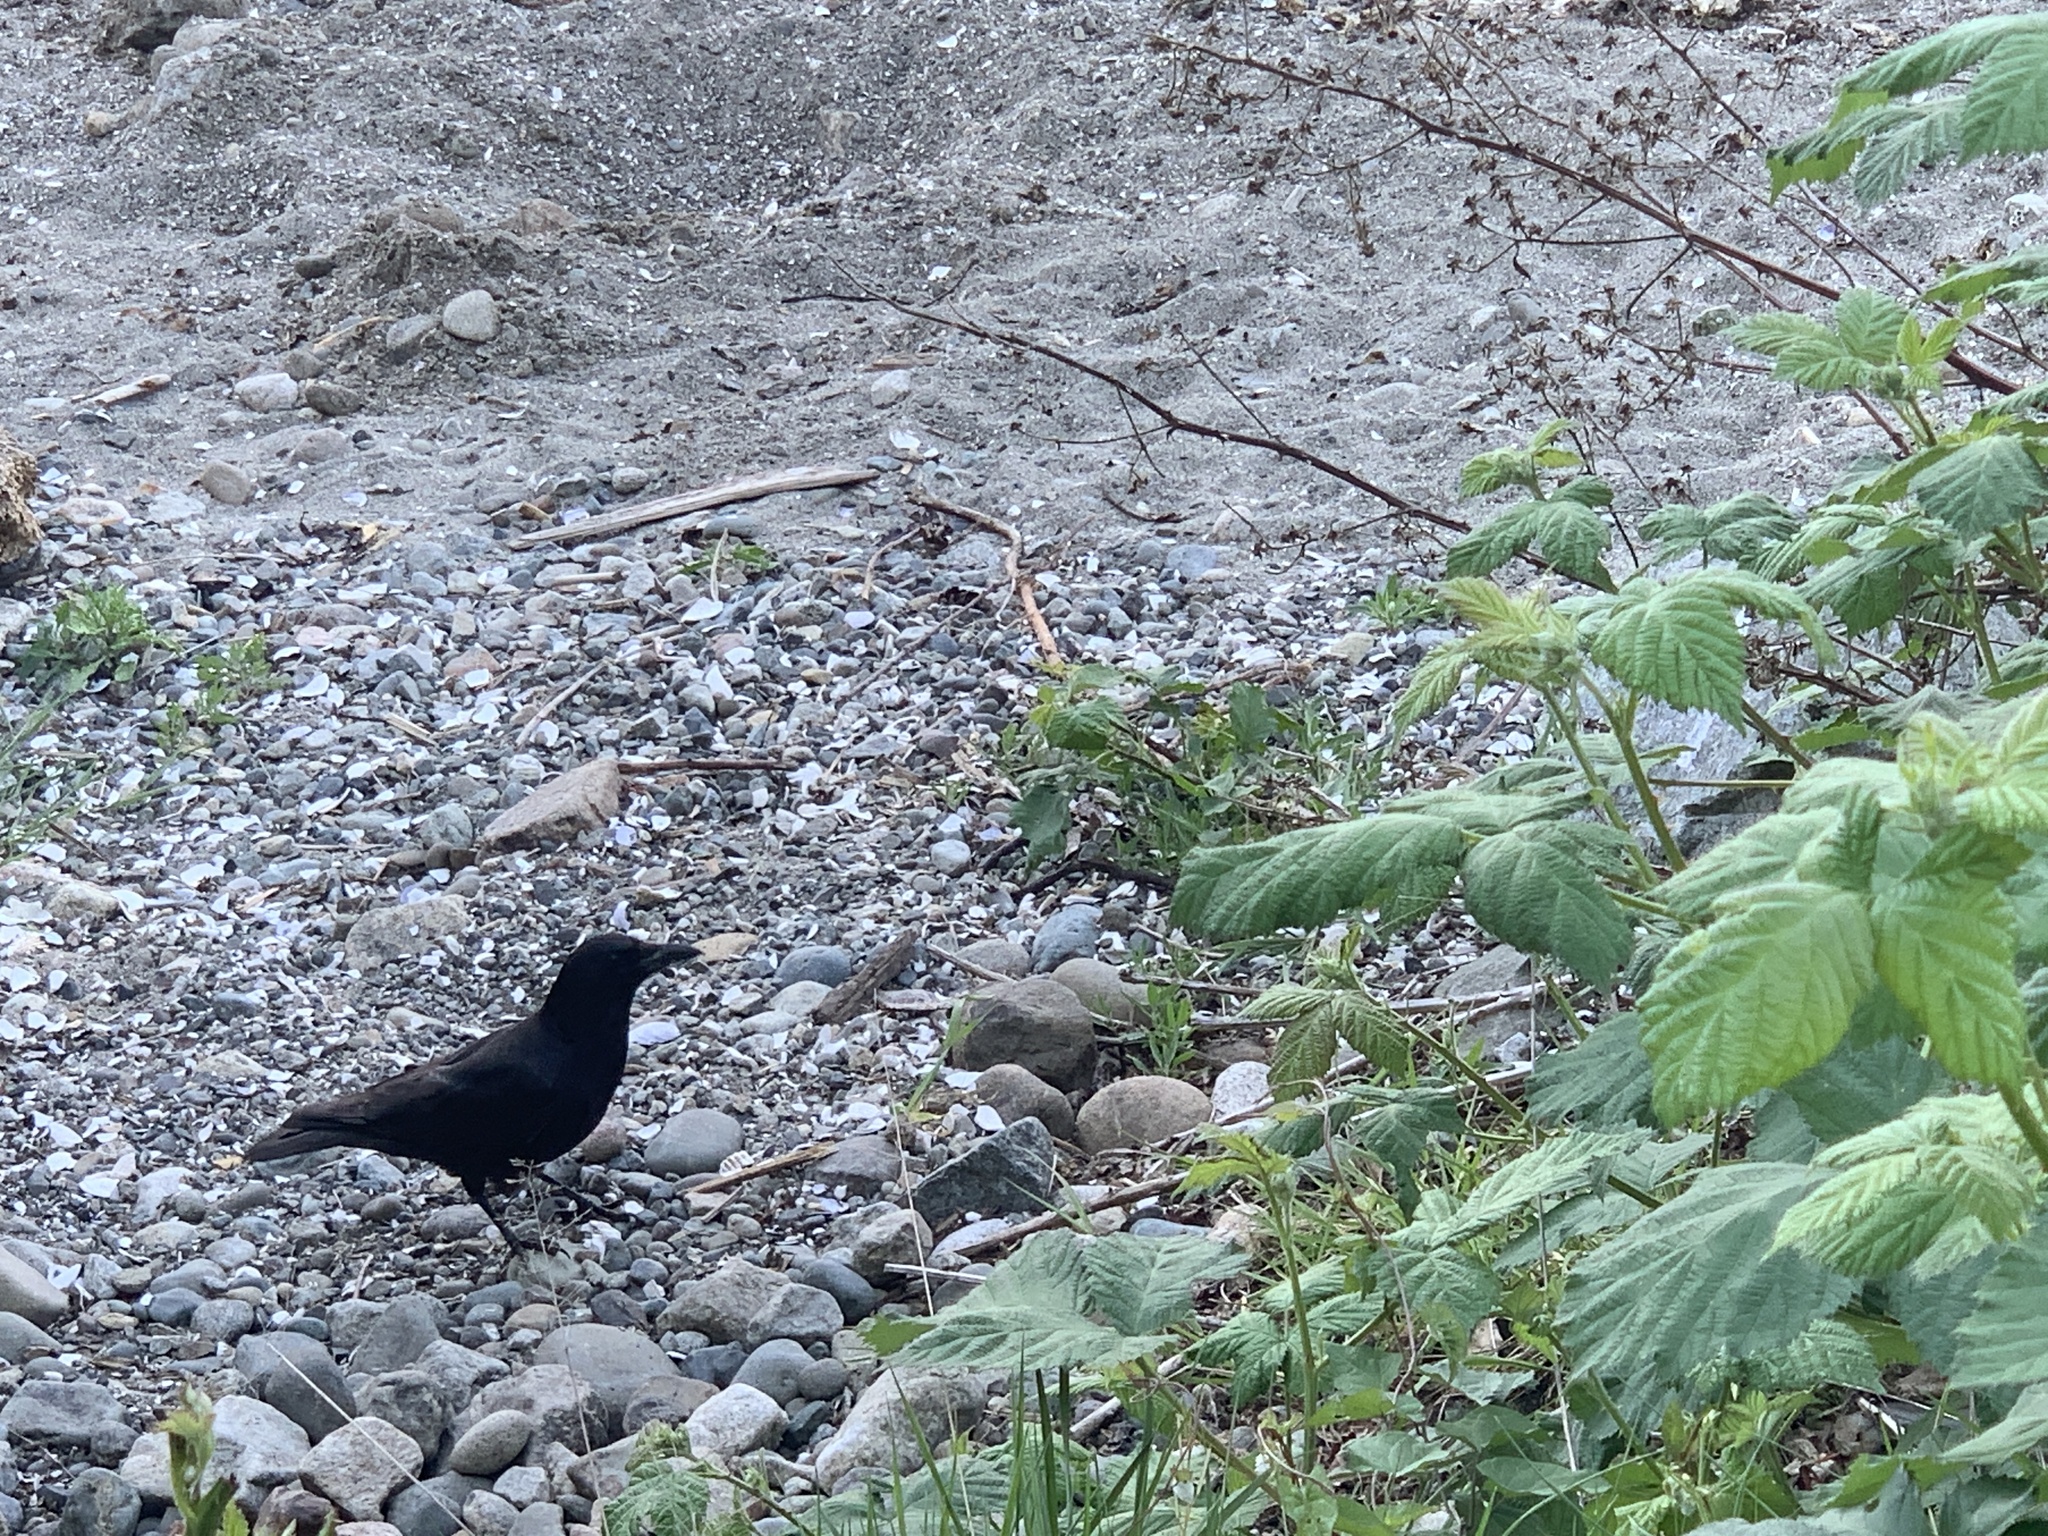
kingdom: Animalia
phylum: Chordata
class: Aves
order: Passeriformes
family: Corvidae
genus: Corvus
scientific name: Corvus brachyrhynchos
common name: American crow
